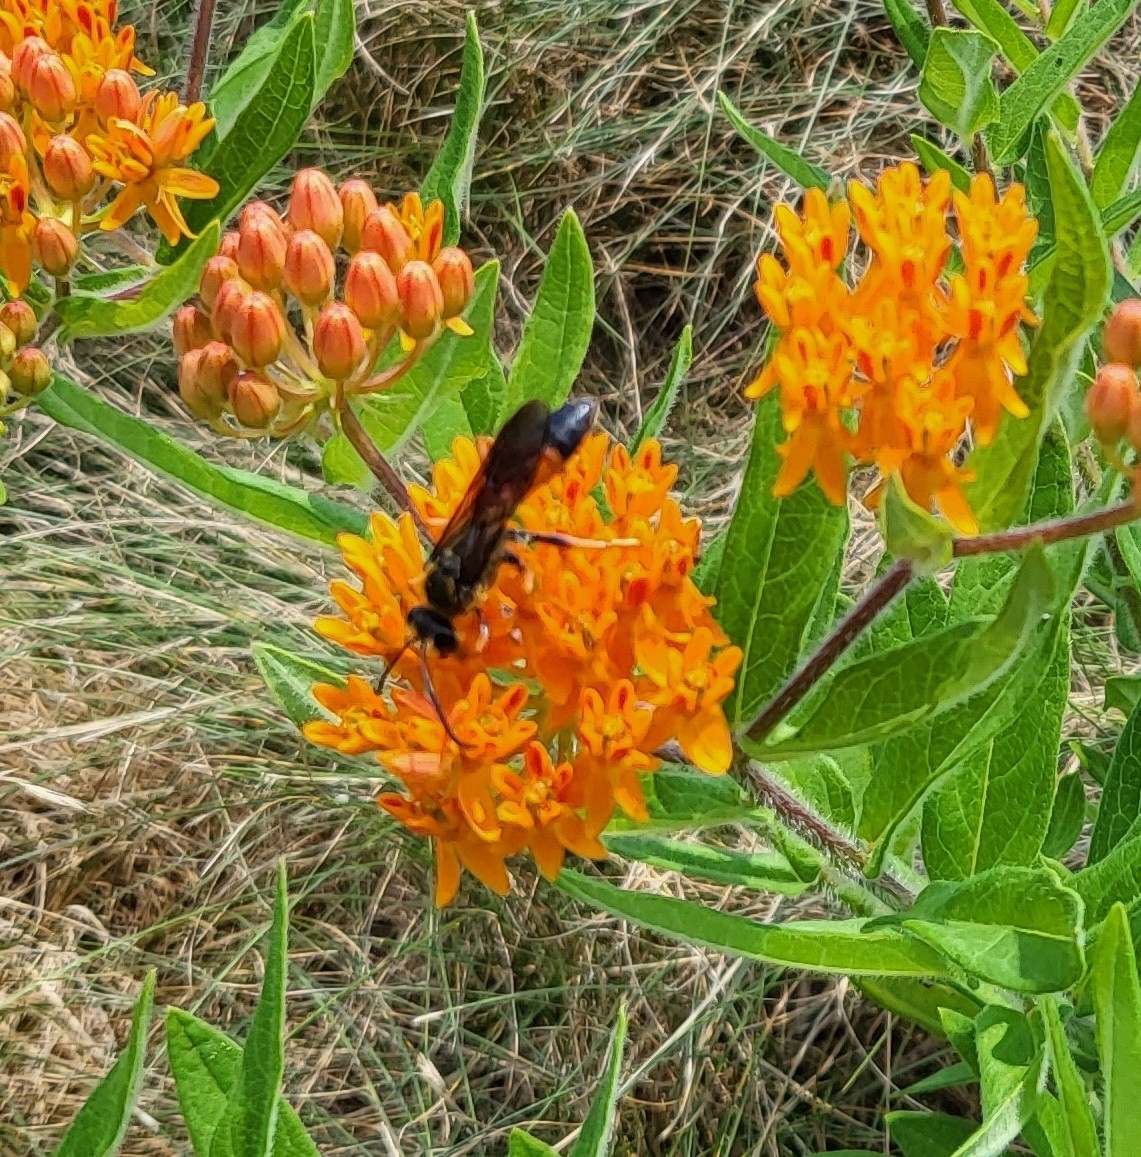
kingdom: Animalia
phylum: Arthropoda
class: Insecta
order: Hymenoptera
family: Sphecidae
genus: Sphex
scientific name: Sphex ichneumoneus
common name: Great golden digger wasp
